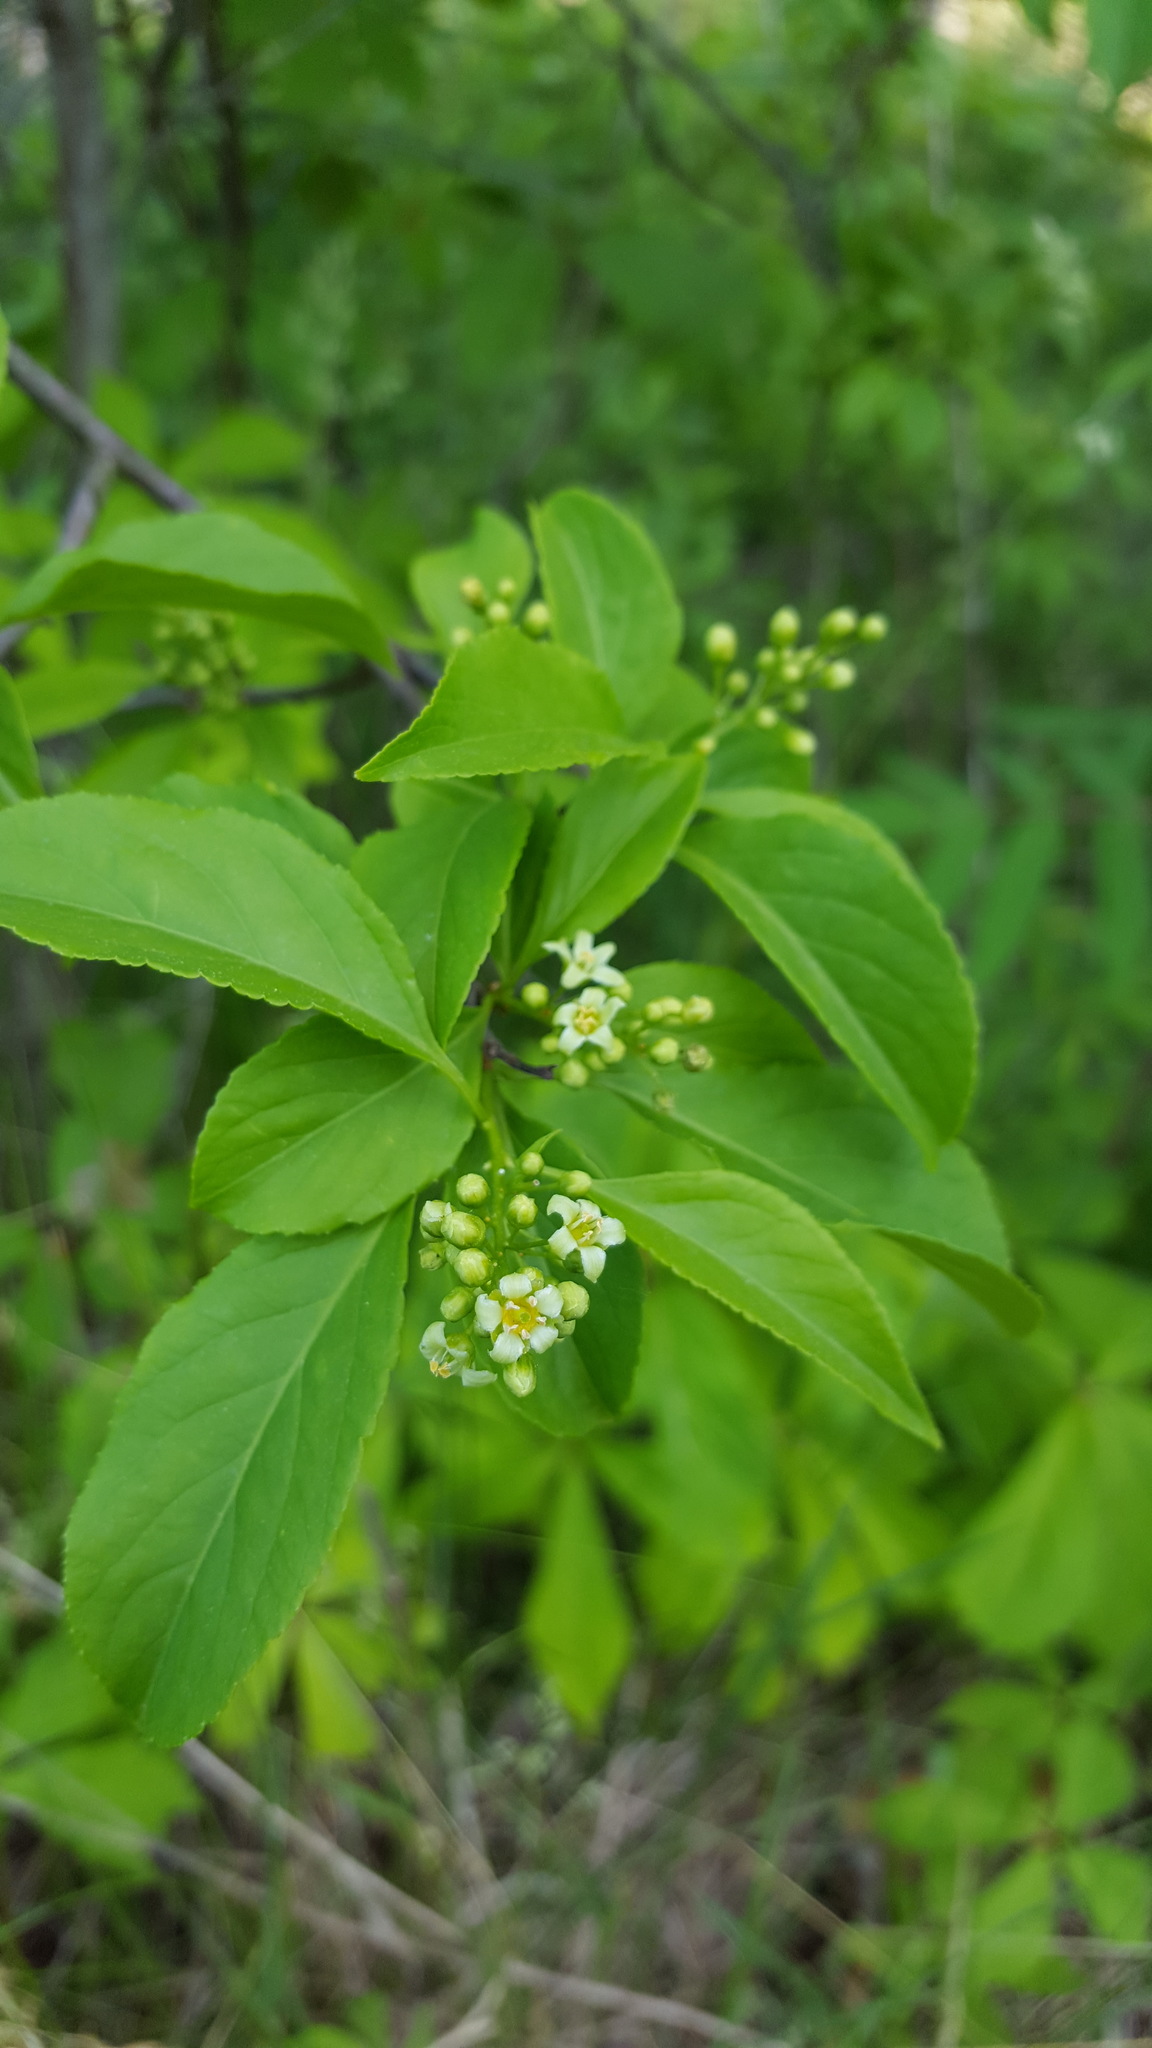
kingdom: Plantae
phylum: Tracheophyta
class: Magnoliopsida
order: Celastrales
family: Celastraceae
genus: Celastrus
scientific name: Celastrus scandens
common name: American bittersweet
